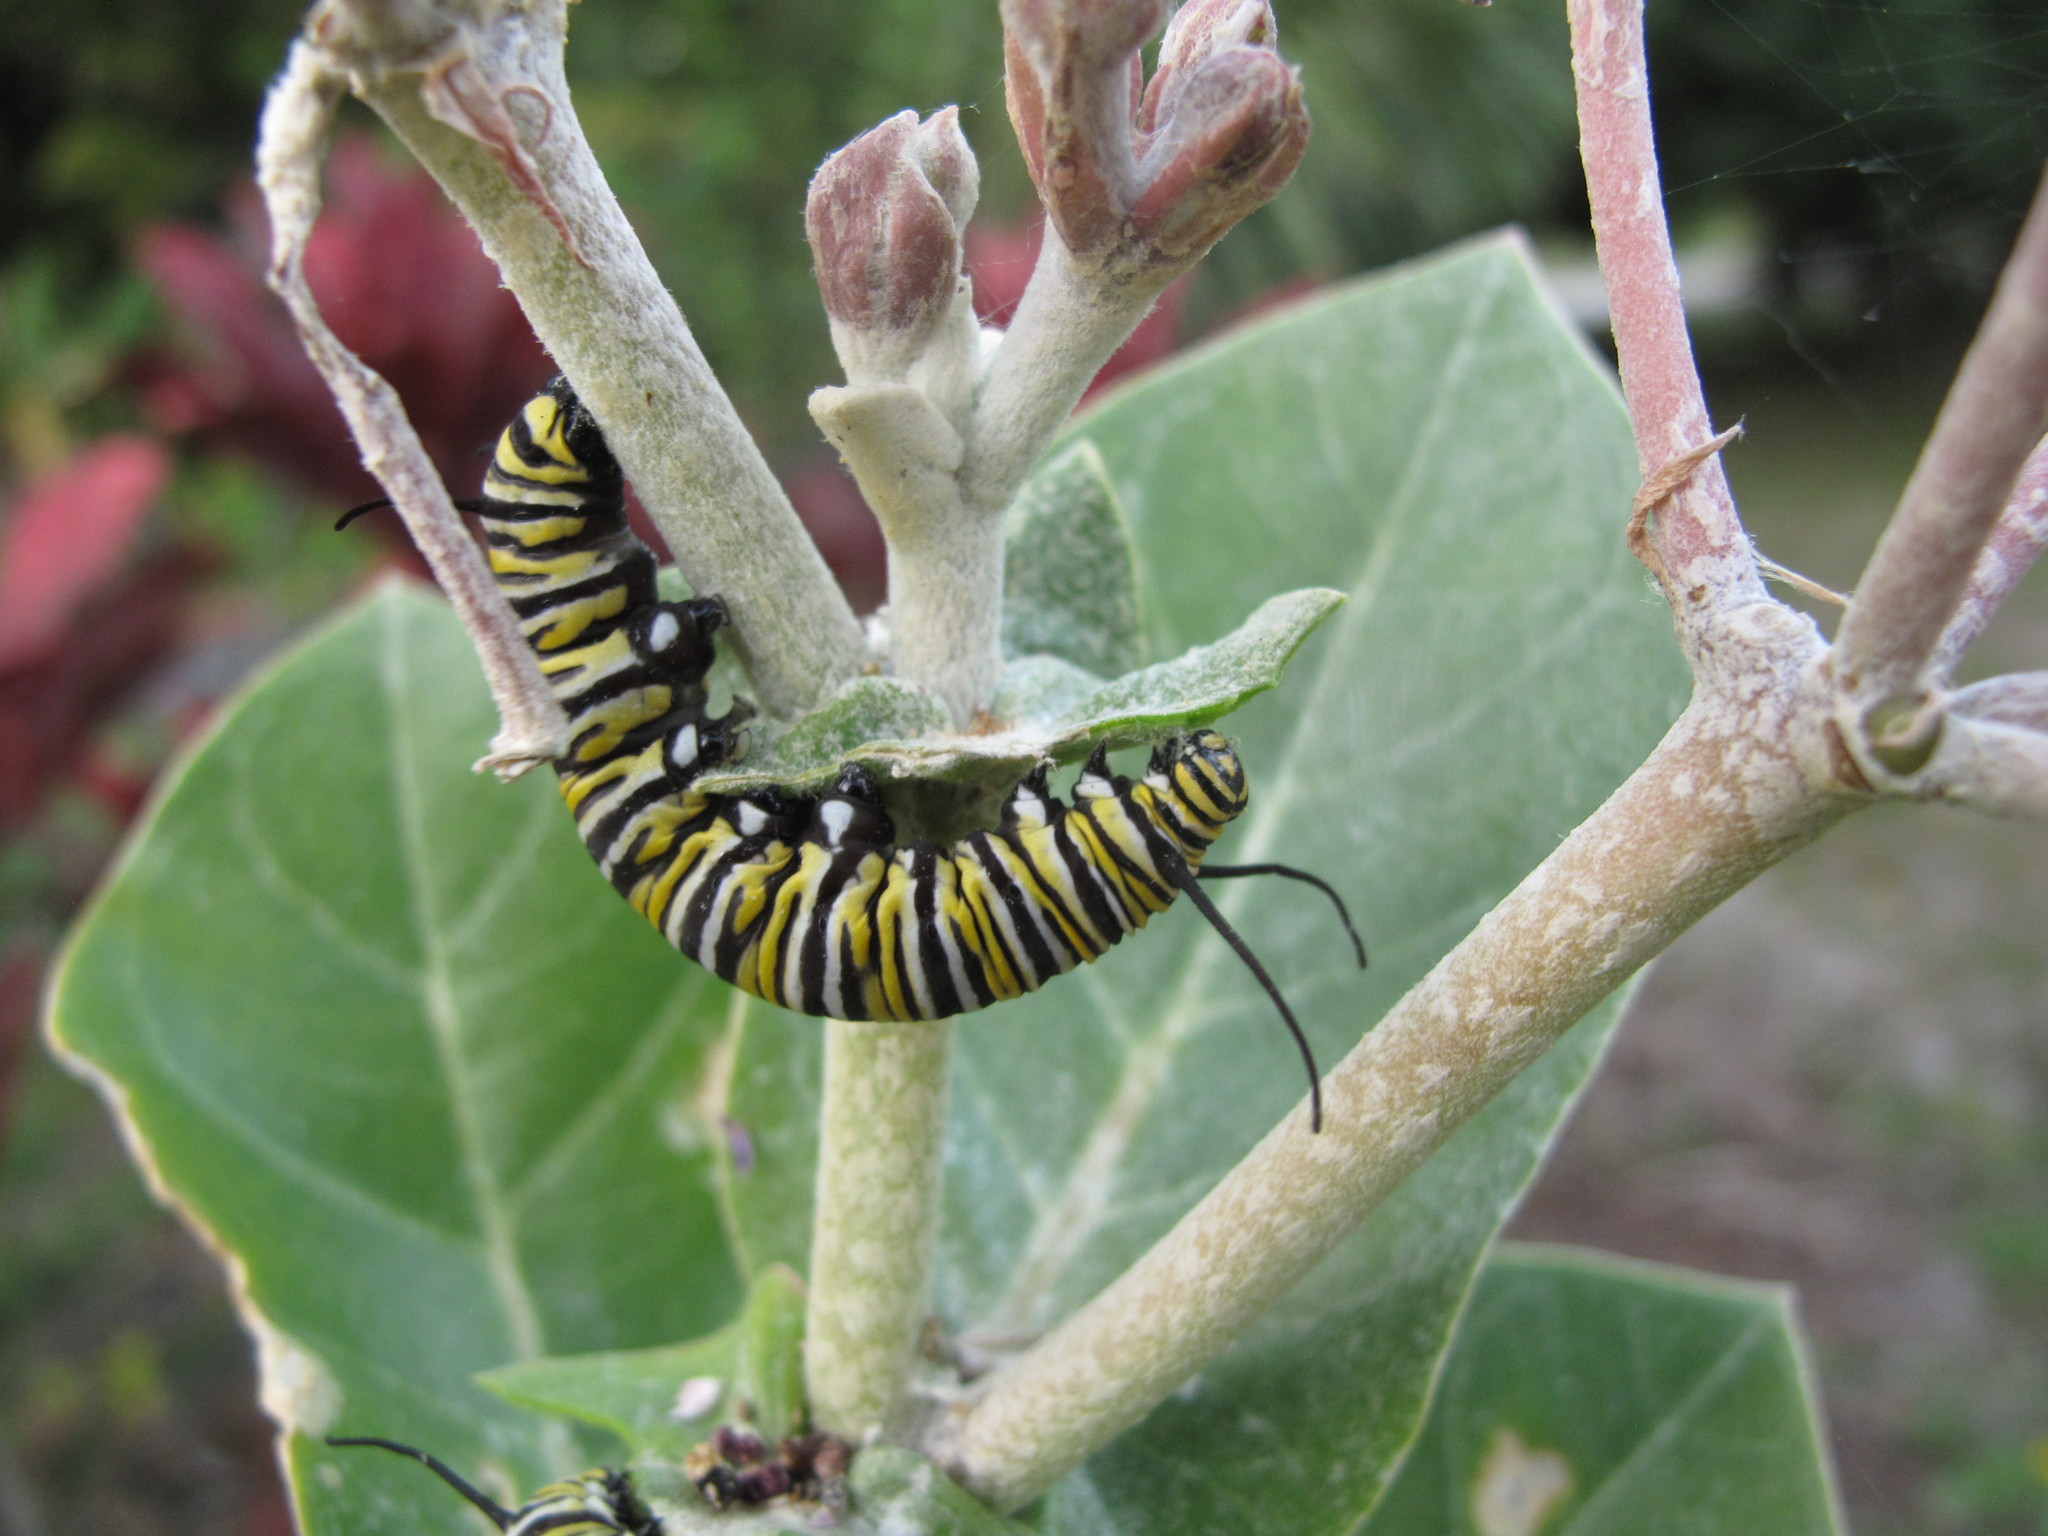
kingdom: Animalia
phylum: Arthropoda
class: Insecta
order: Lepidoptera
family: Nymphalidae
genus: Danaus
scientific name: Danaus plexippus
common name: Monarch
